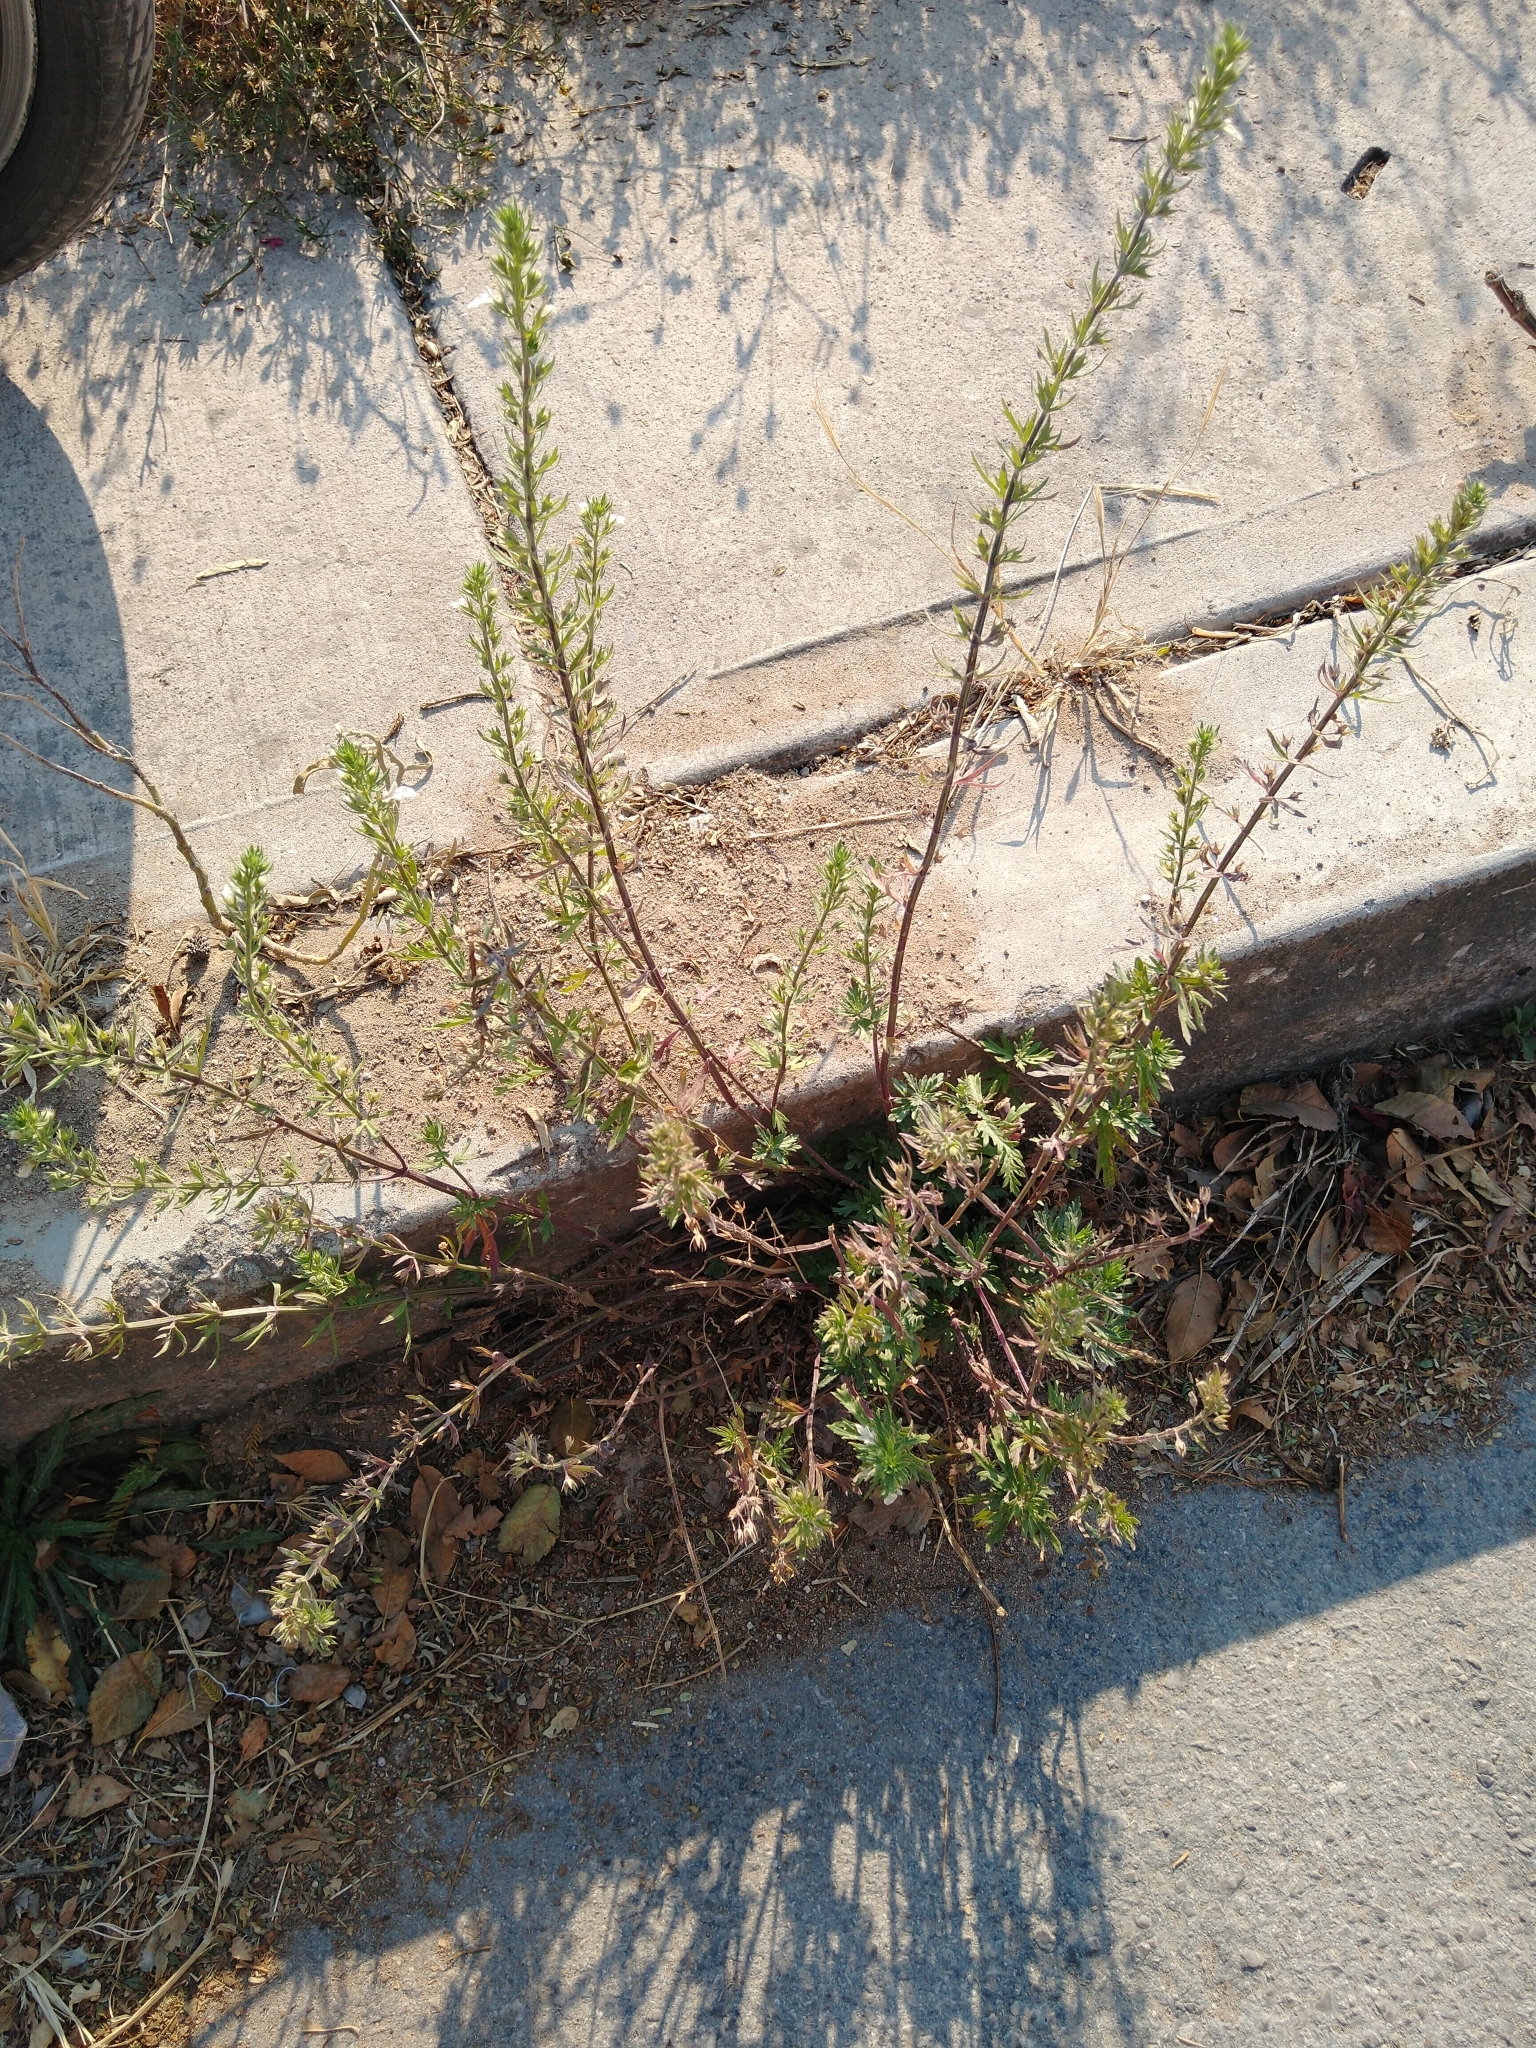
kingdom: Plantae
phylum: Tracheophyta
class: Magnoliopsida
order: Lamiales
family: Lamiaceae
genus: Teucrium
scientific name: Teucrium cubense
